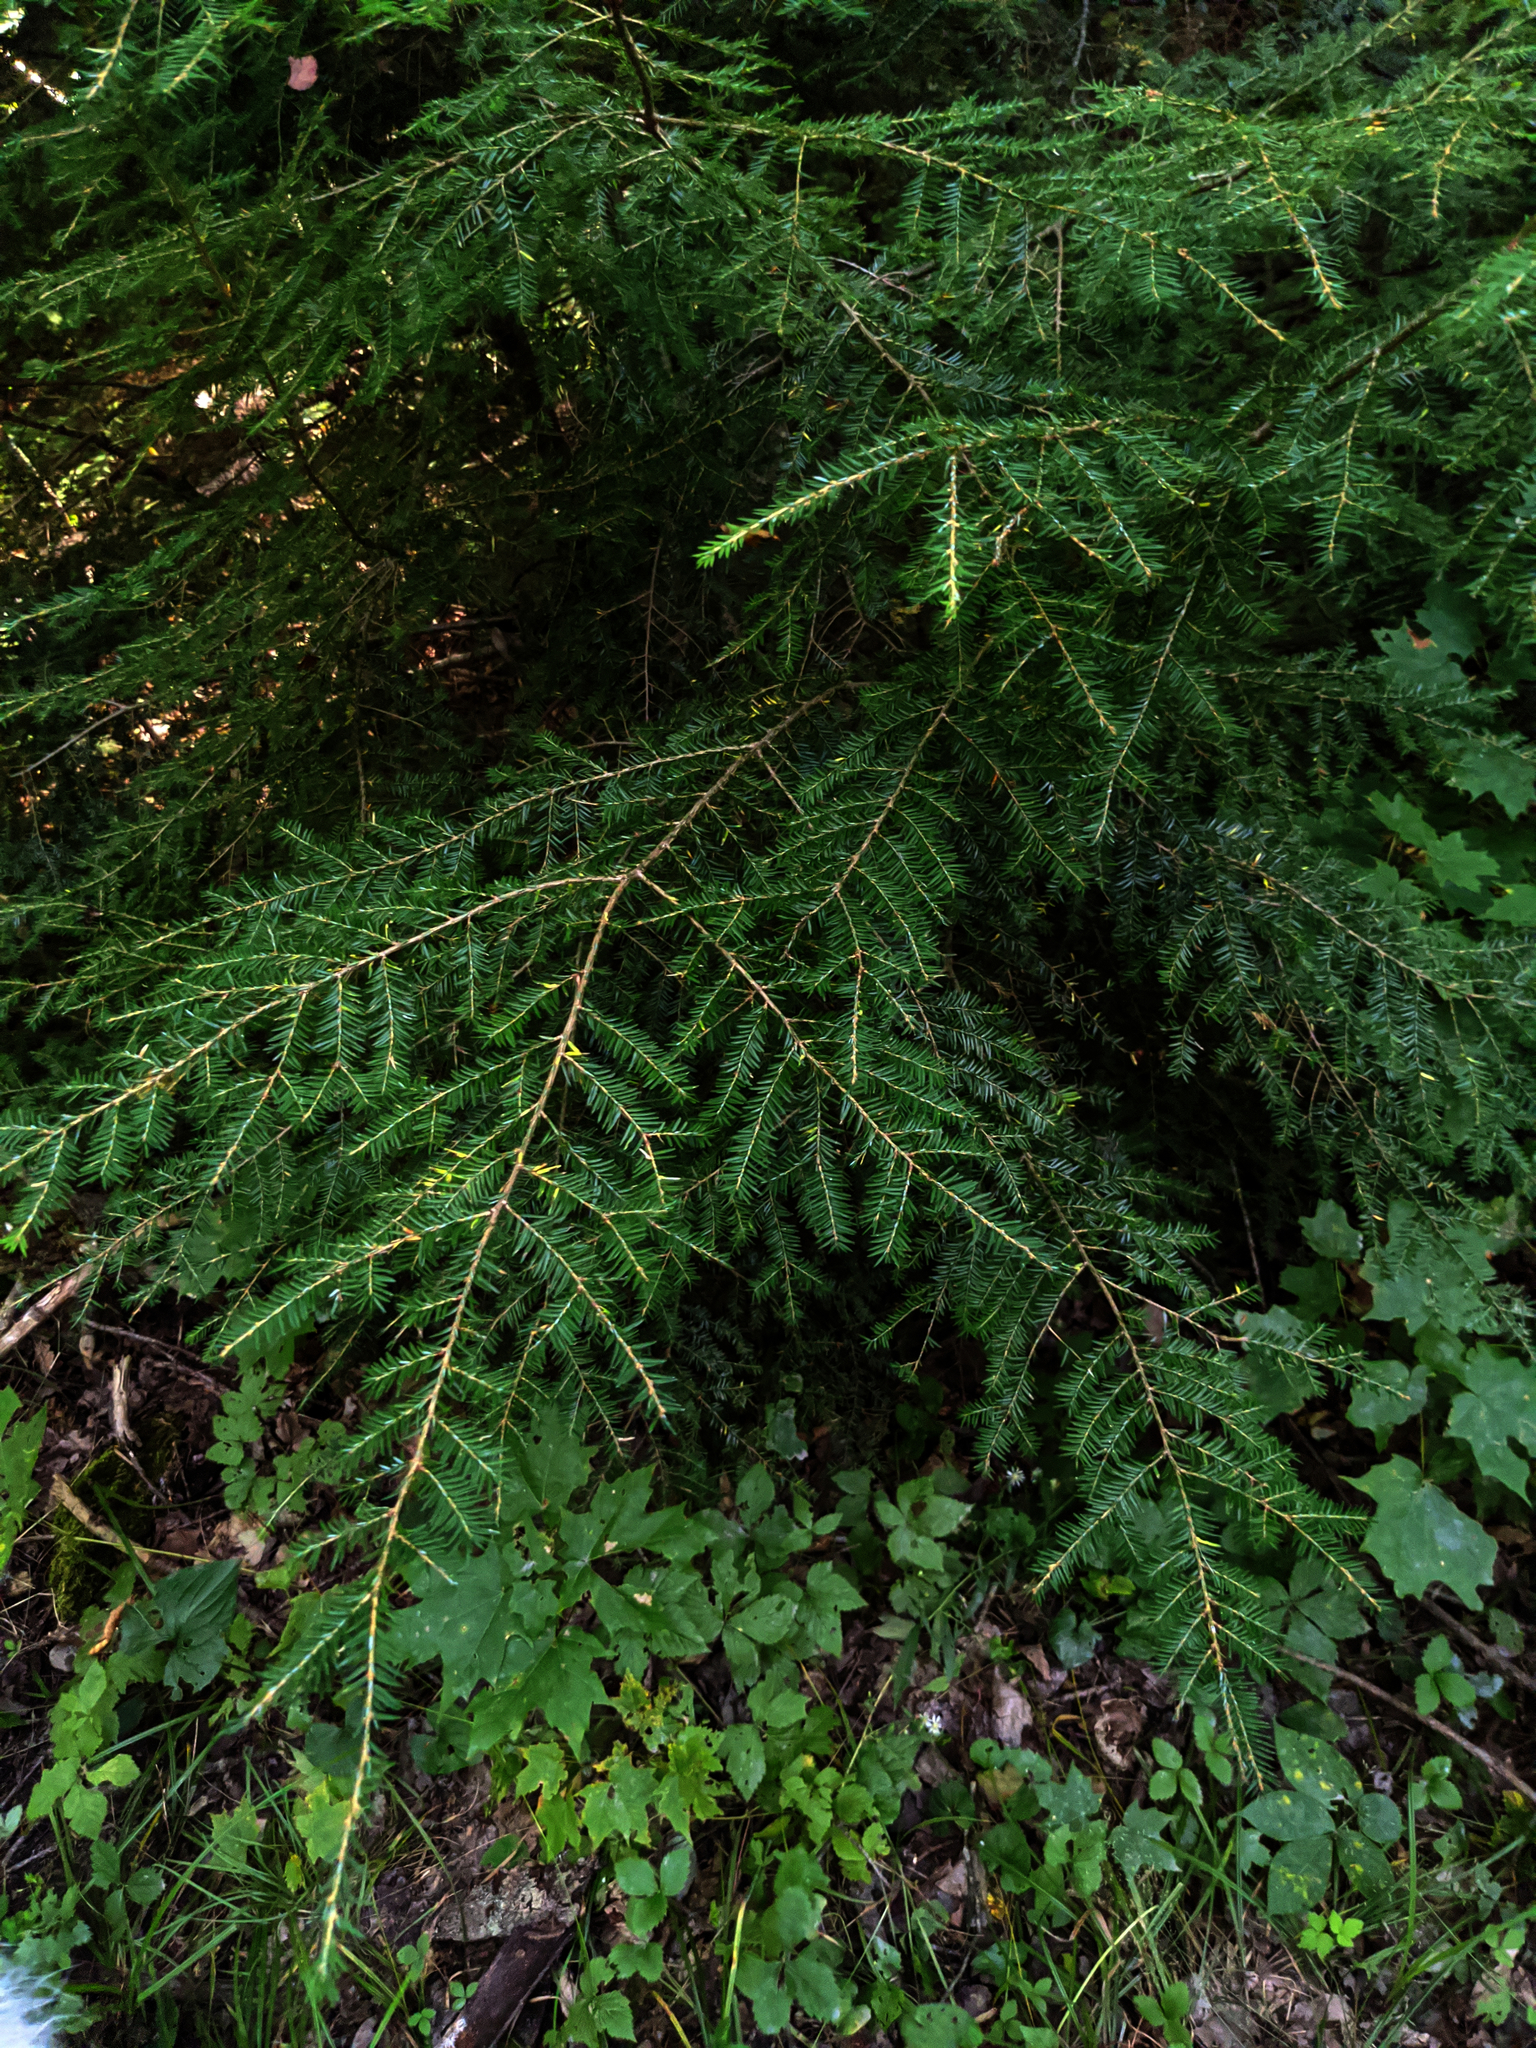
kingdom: Plantae
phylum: Tracheophyta
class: Magnoliopsida
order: Sapindales
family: Sapindaceae
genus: Acer
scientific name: Acer saccharum
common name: Sugar maple
